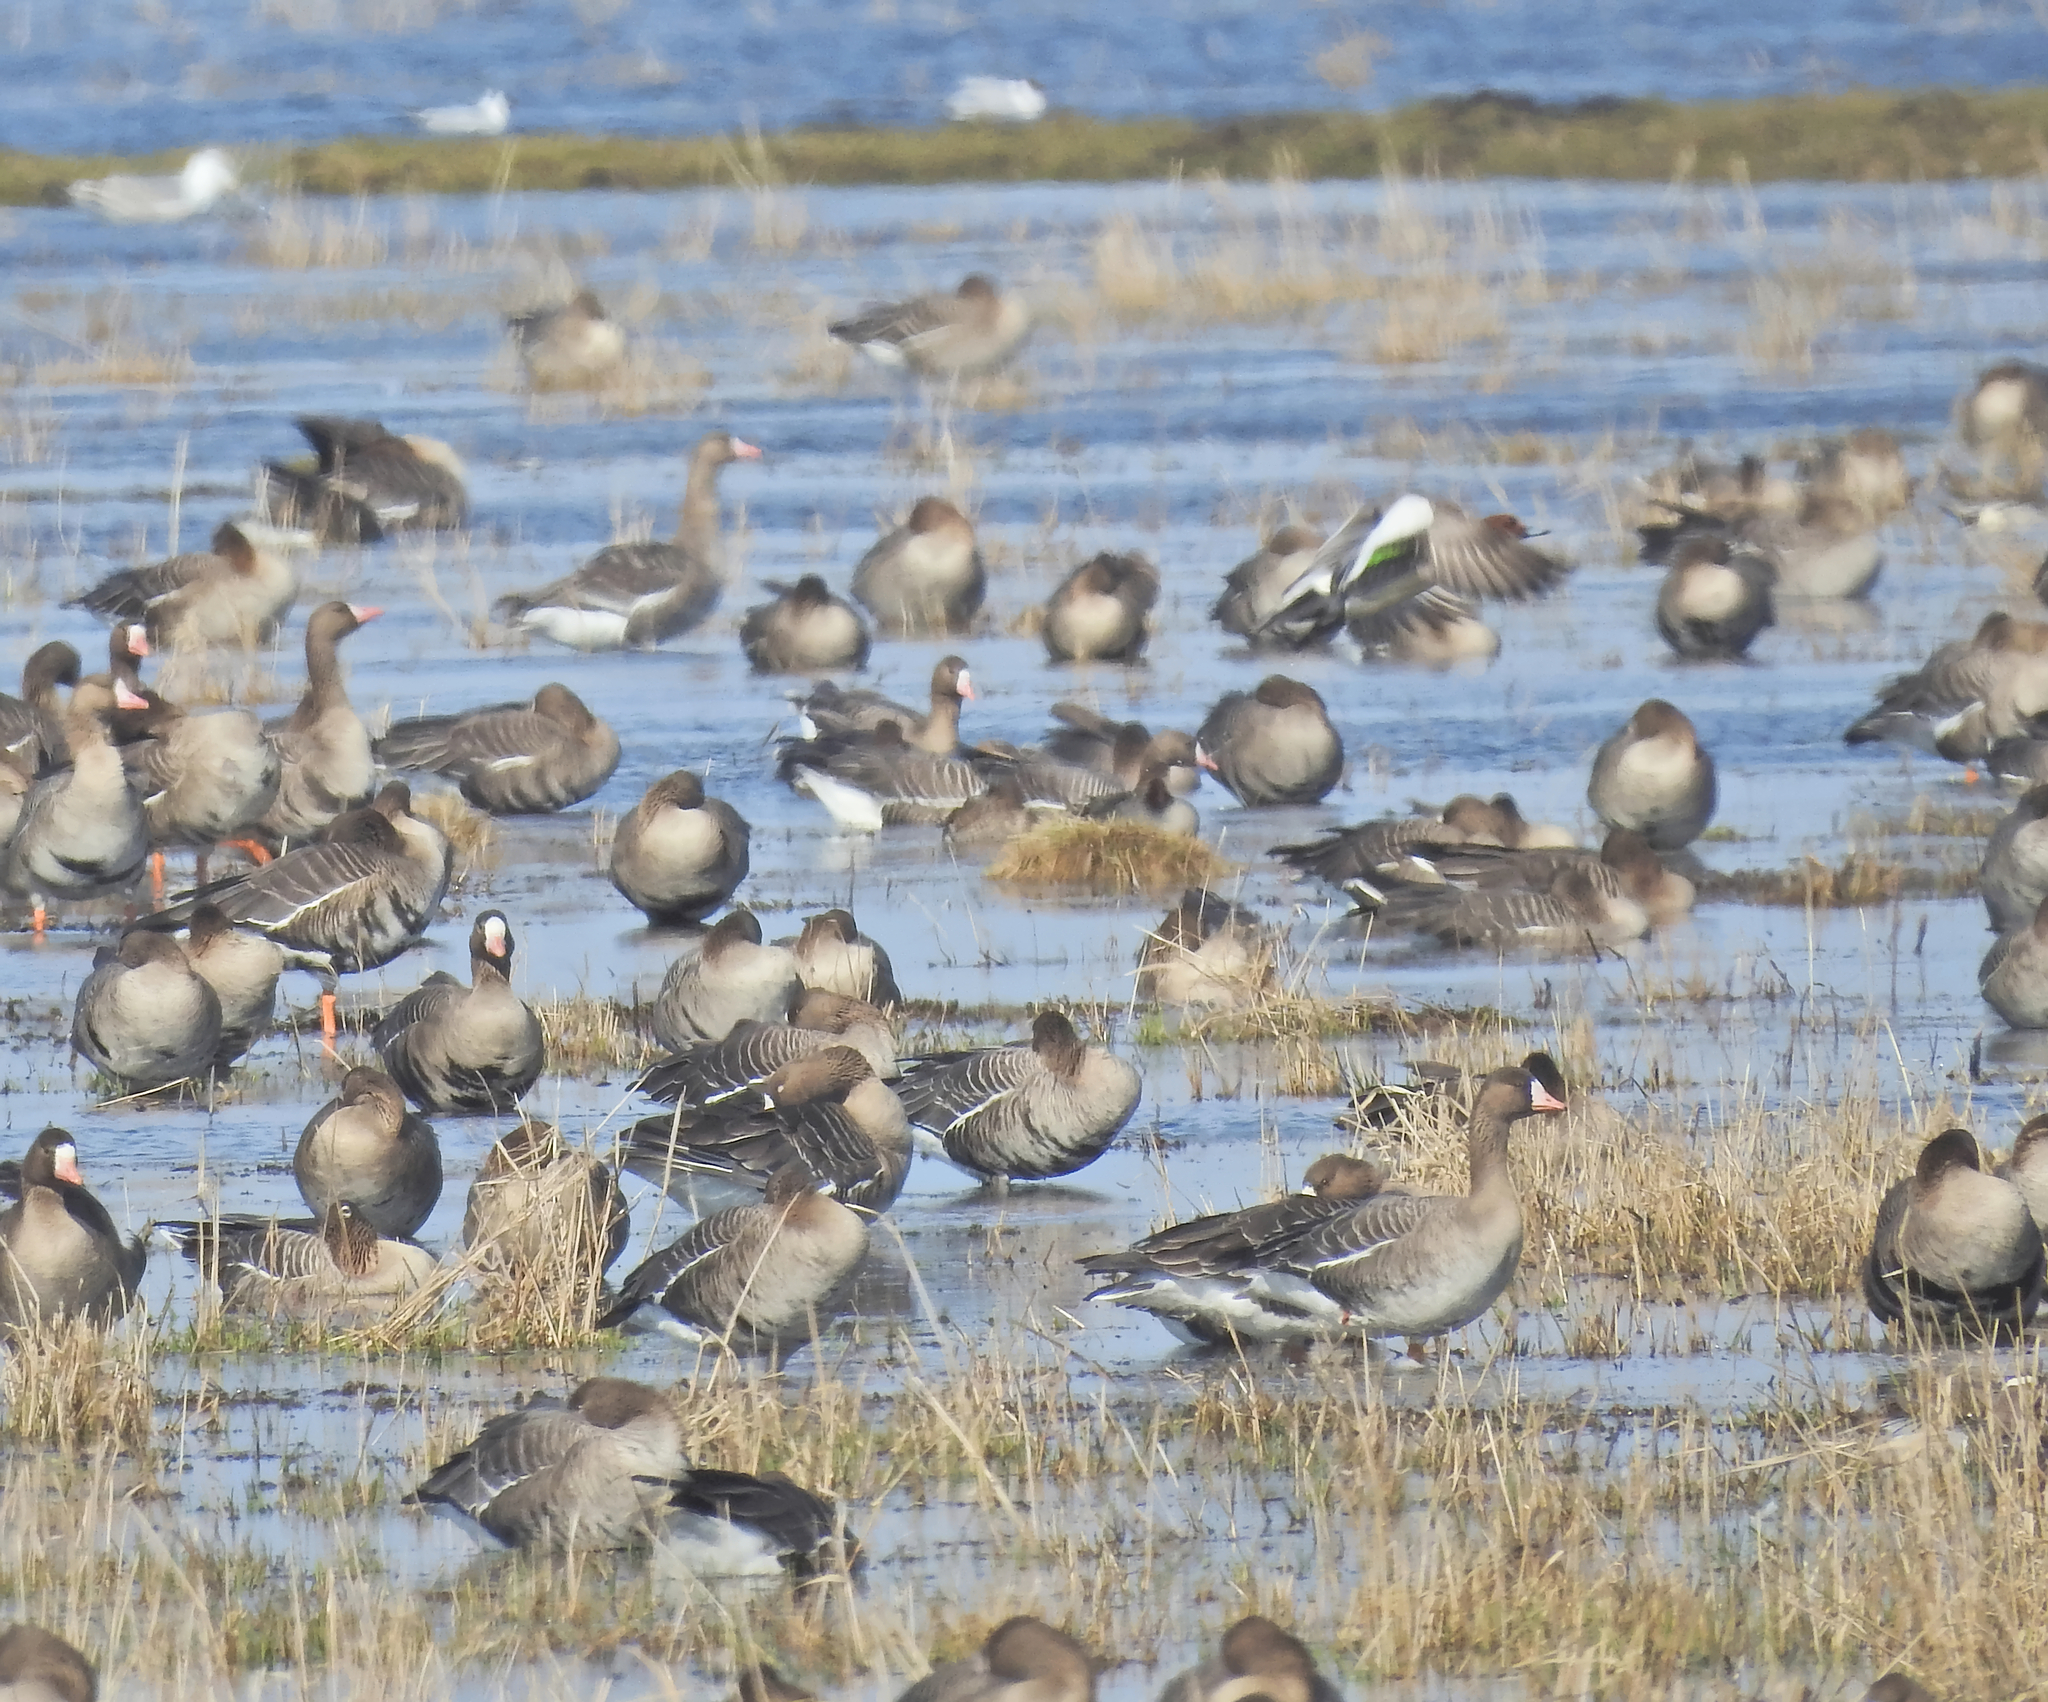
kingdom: Animalia
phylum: Chordata
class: Aves
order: Anseriformes
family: Anatidae
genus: Mareca
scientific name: Mareca penelope
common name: Eurasian wigeon
